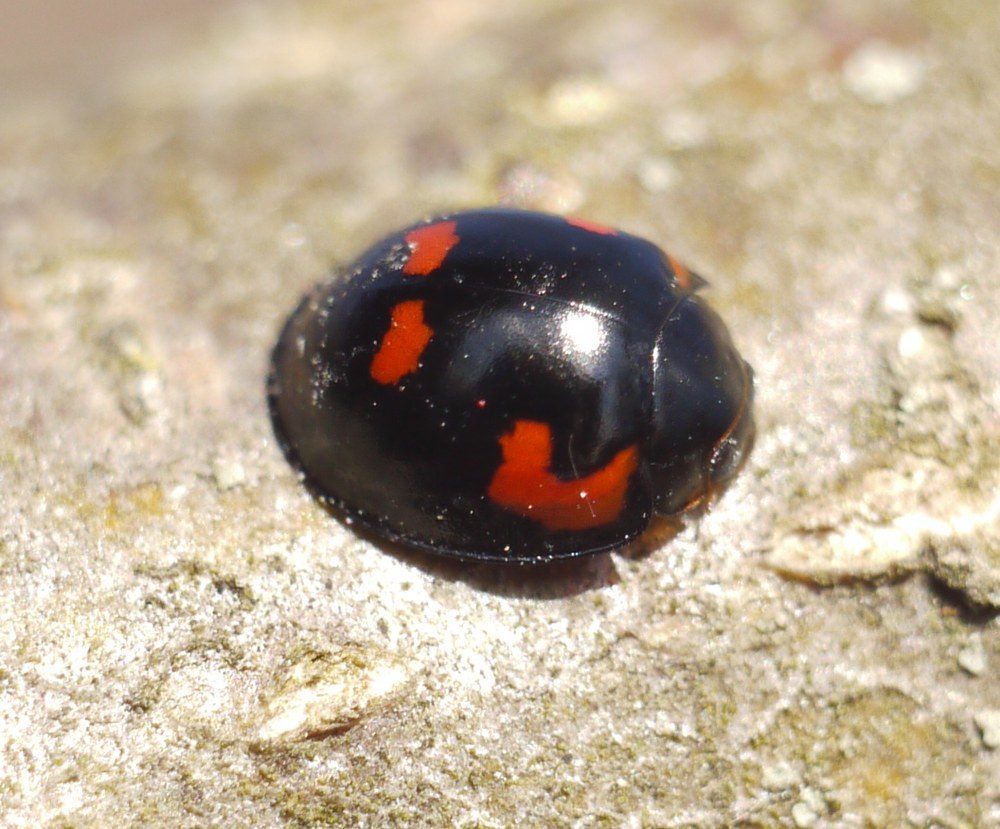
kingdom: Animalia
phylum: Arthropoda
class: Insecta
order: Coleoptera
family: Coccinellidae
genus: Brumus
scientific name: Brumus quadripustulatus
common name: Ladybird beetle
